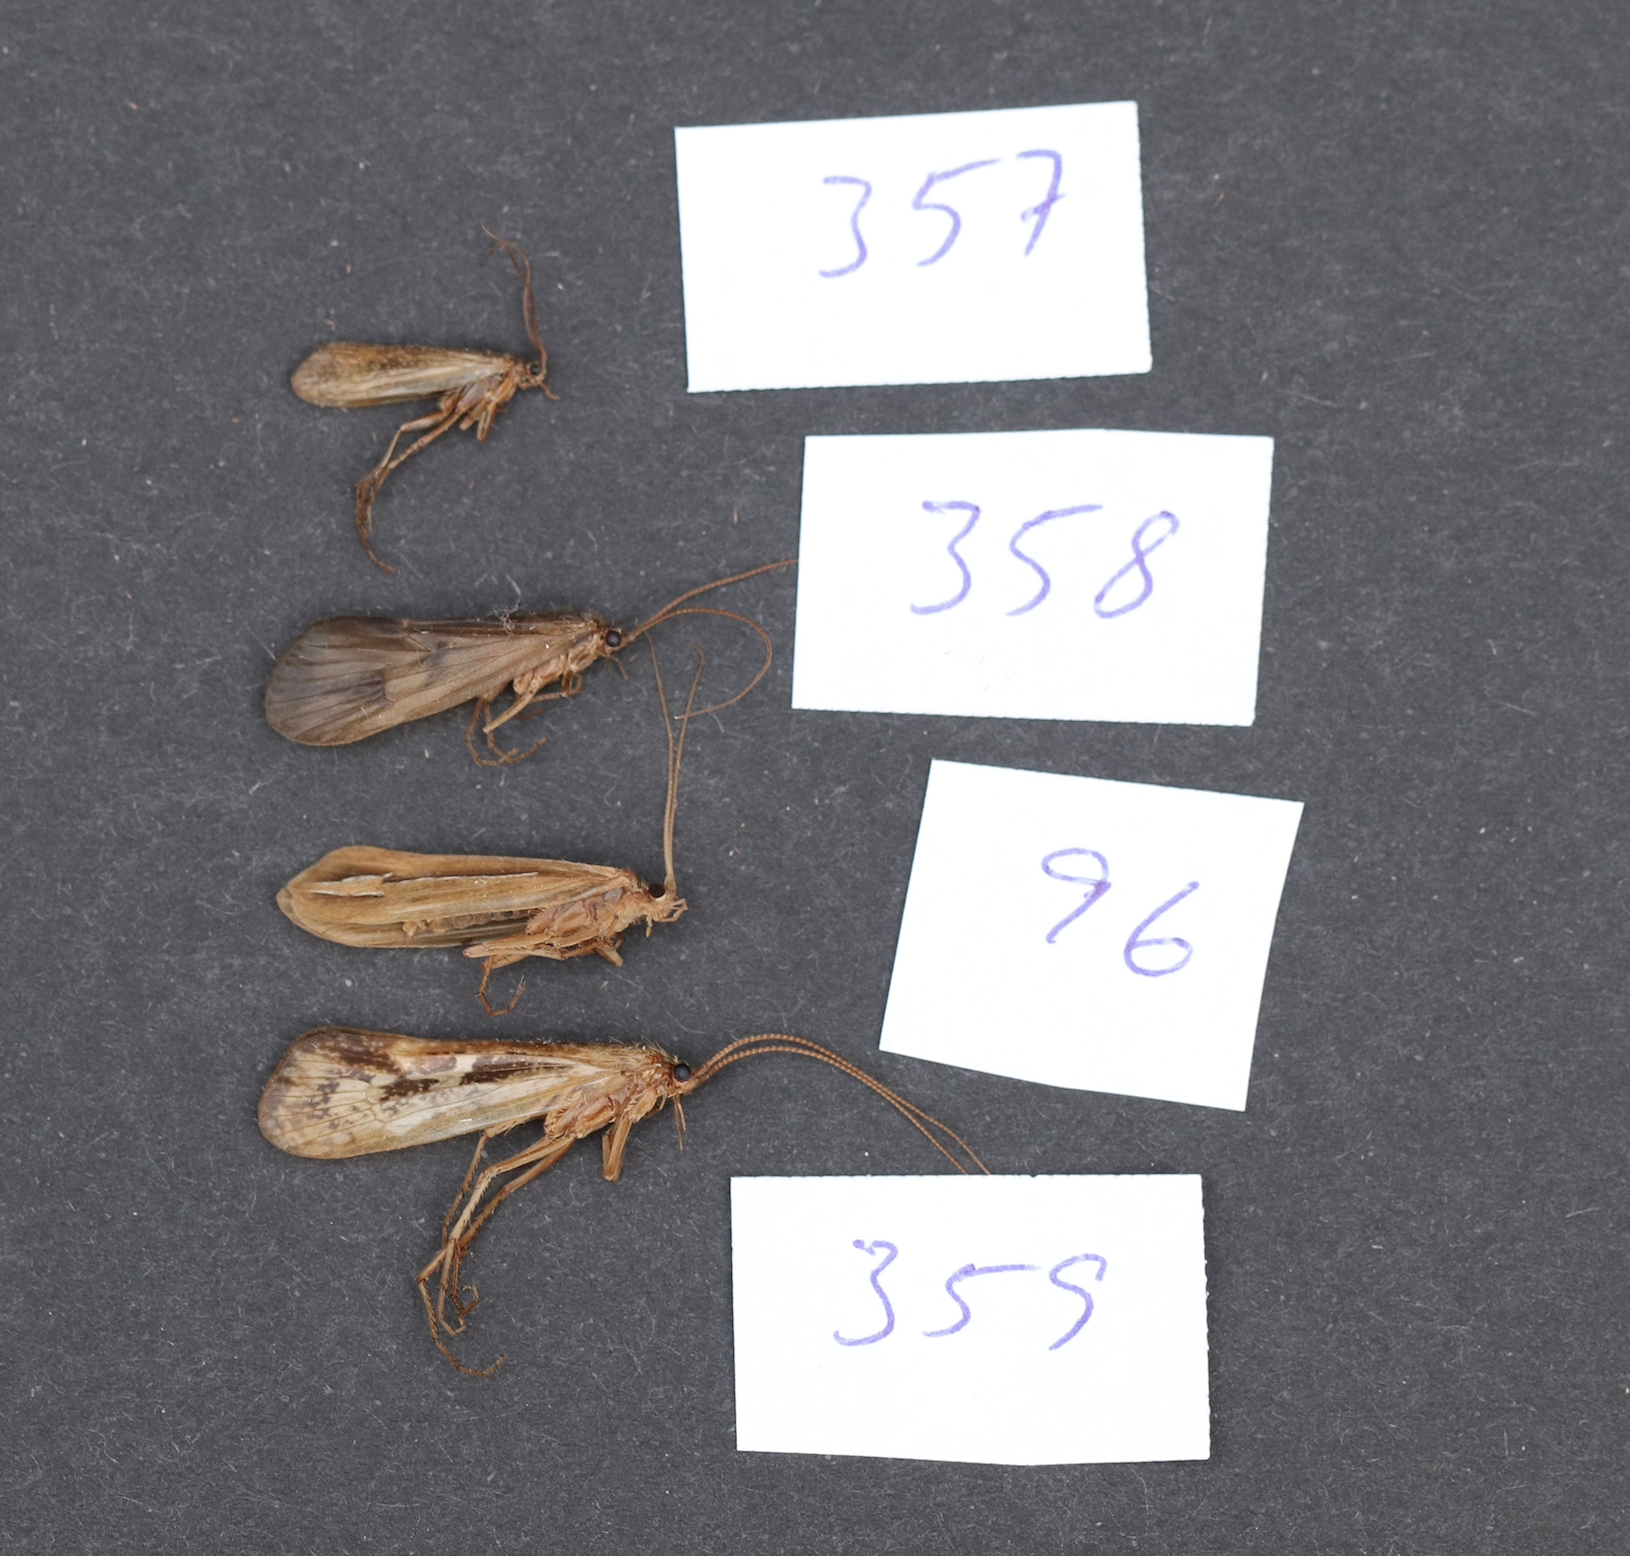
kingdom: Animalia
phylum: Arthropoda
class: Insecta
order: Trichoptera
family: Limnephilidae
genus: Hesperophylax
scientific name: Hesperophylax designatus
